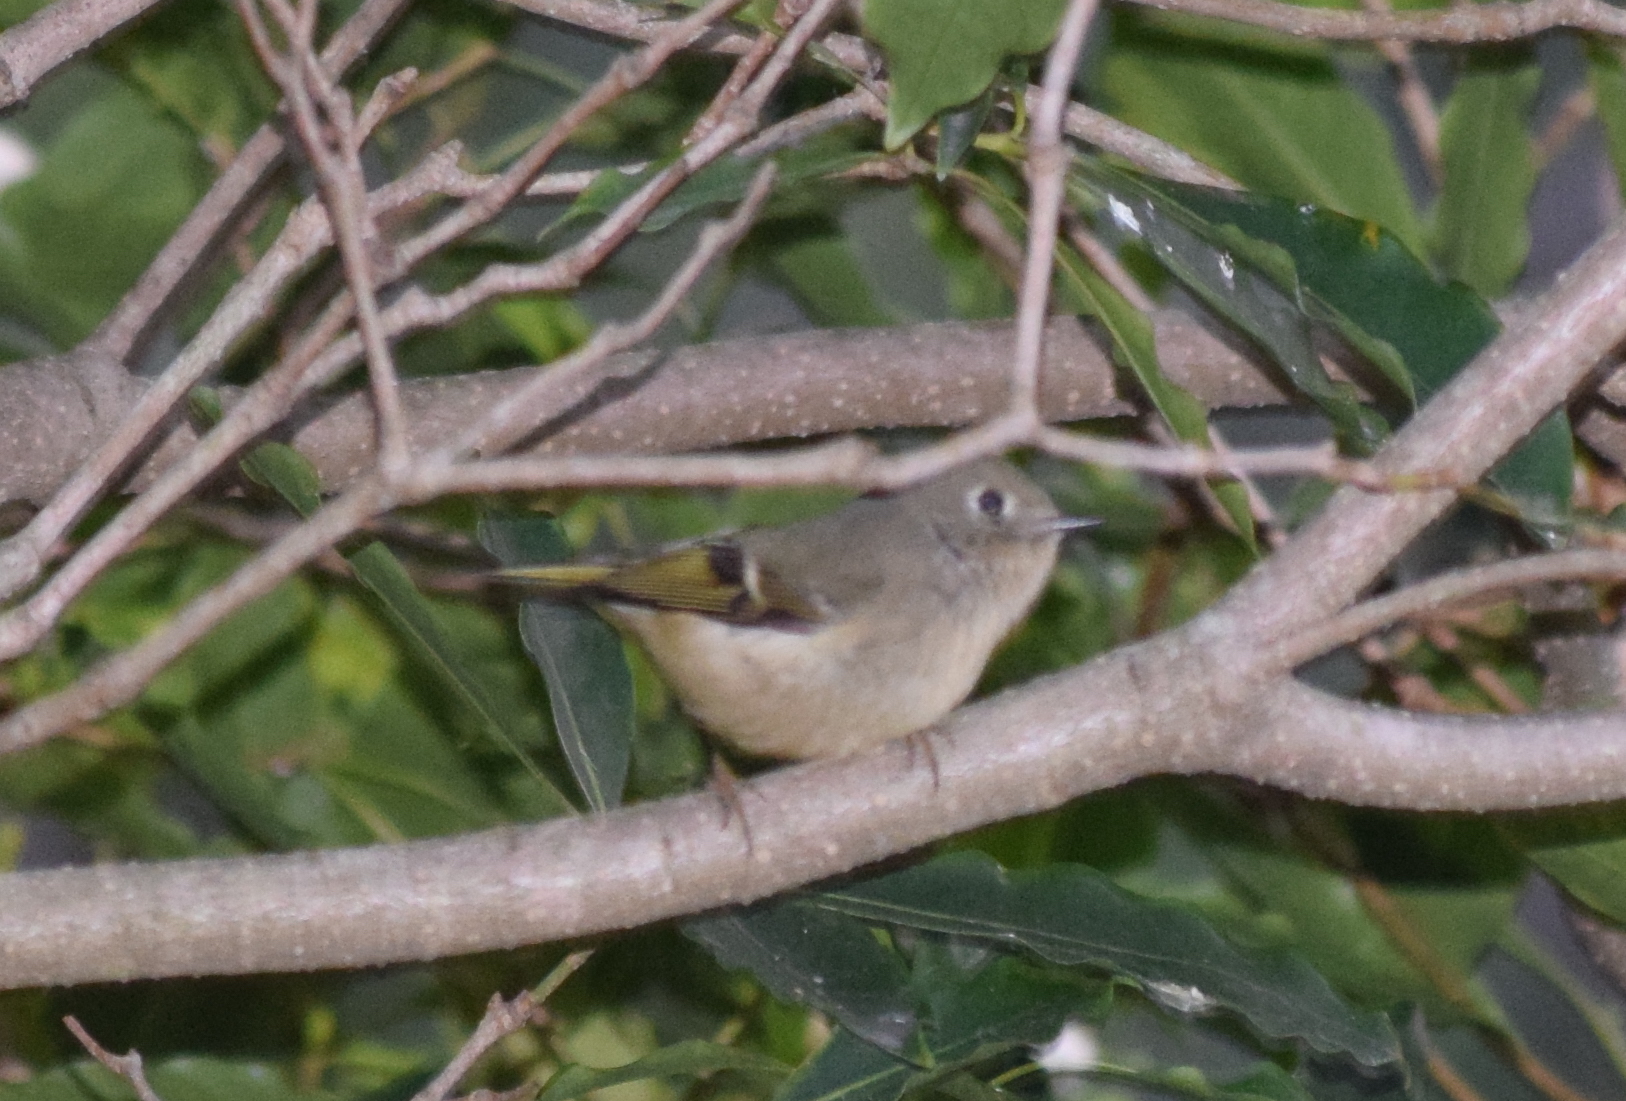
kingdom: Animalia
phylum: Chordata
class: Aves
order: Passeriformes
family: Regulidae
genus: Regulus
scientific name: Regulus calendula
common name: Ruby-crowned kinglet
